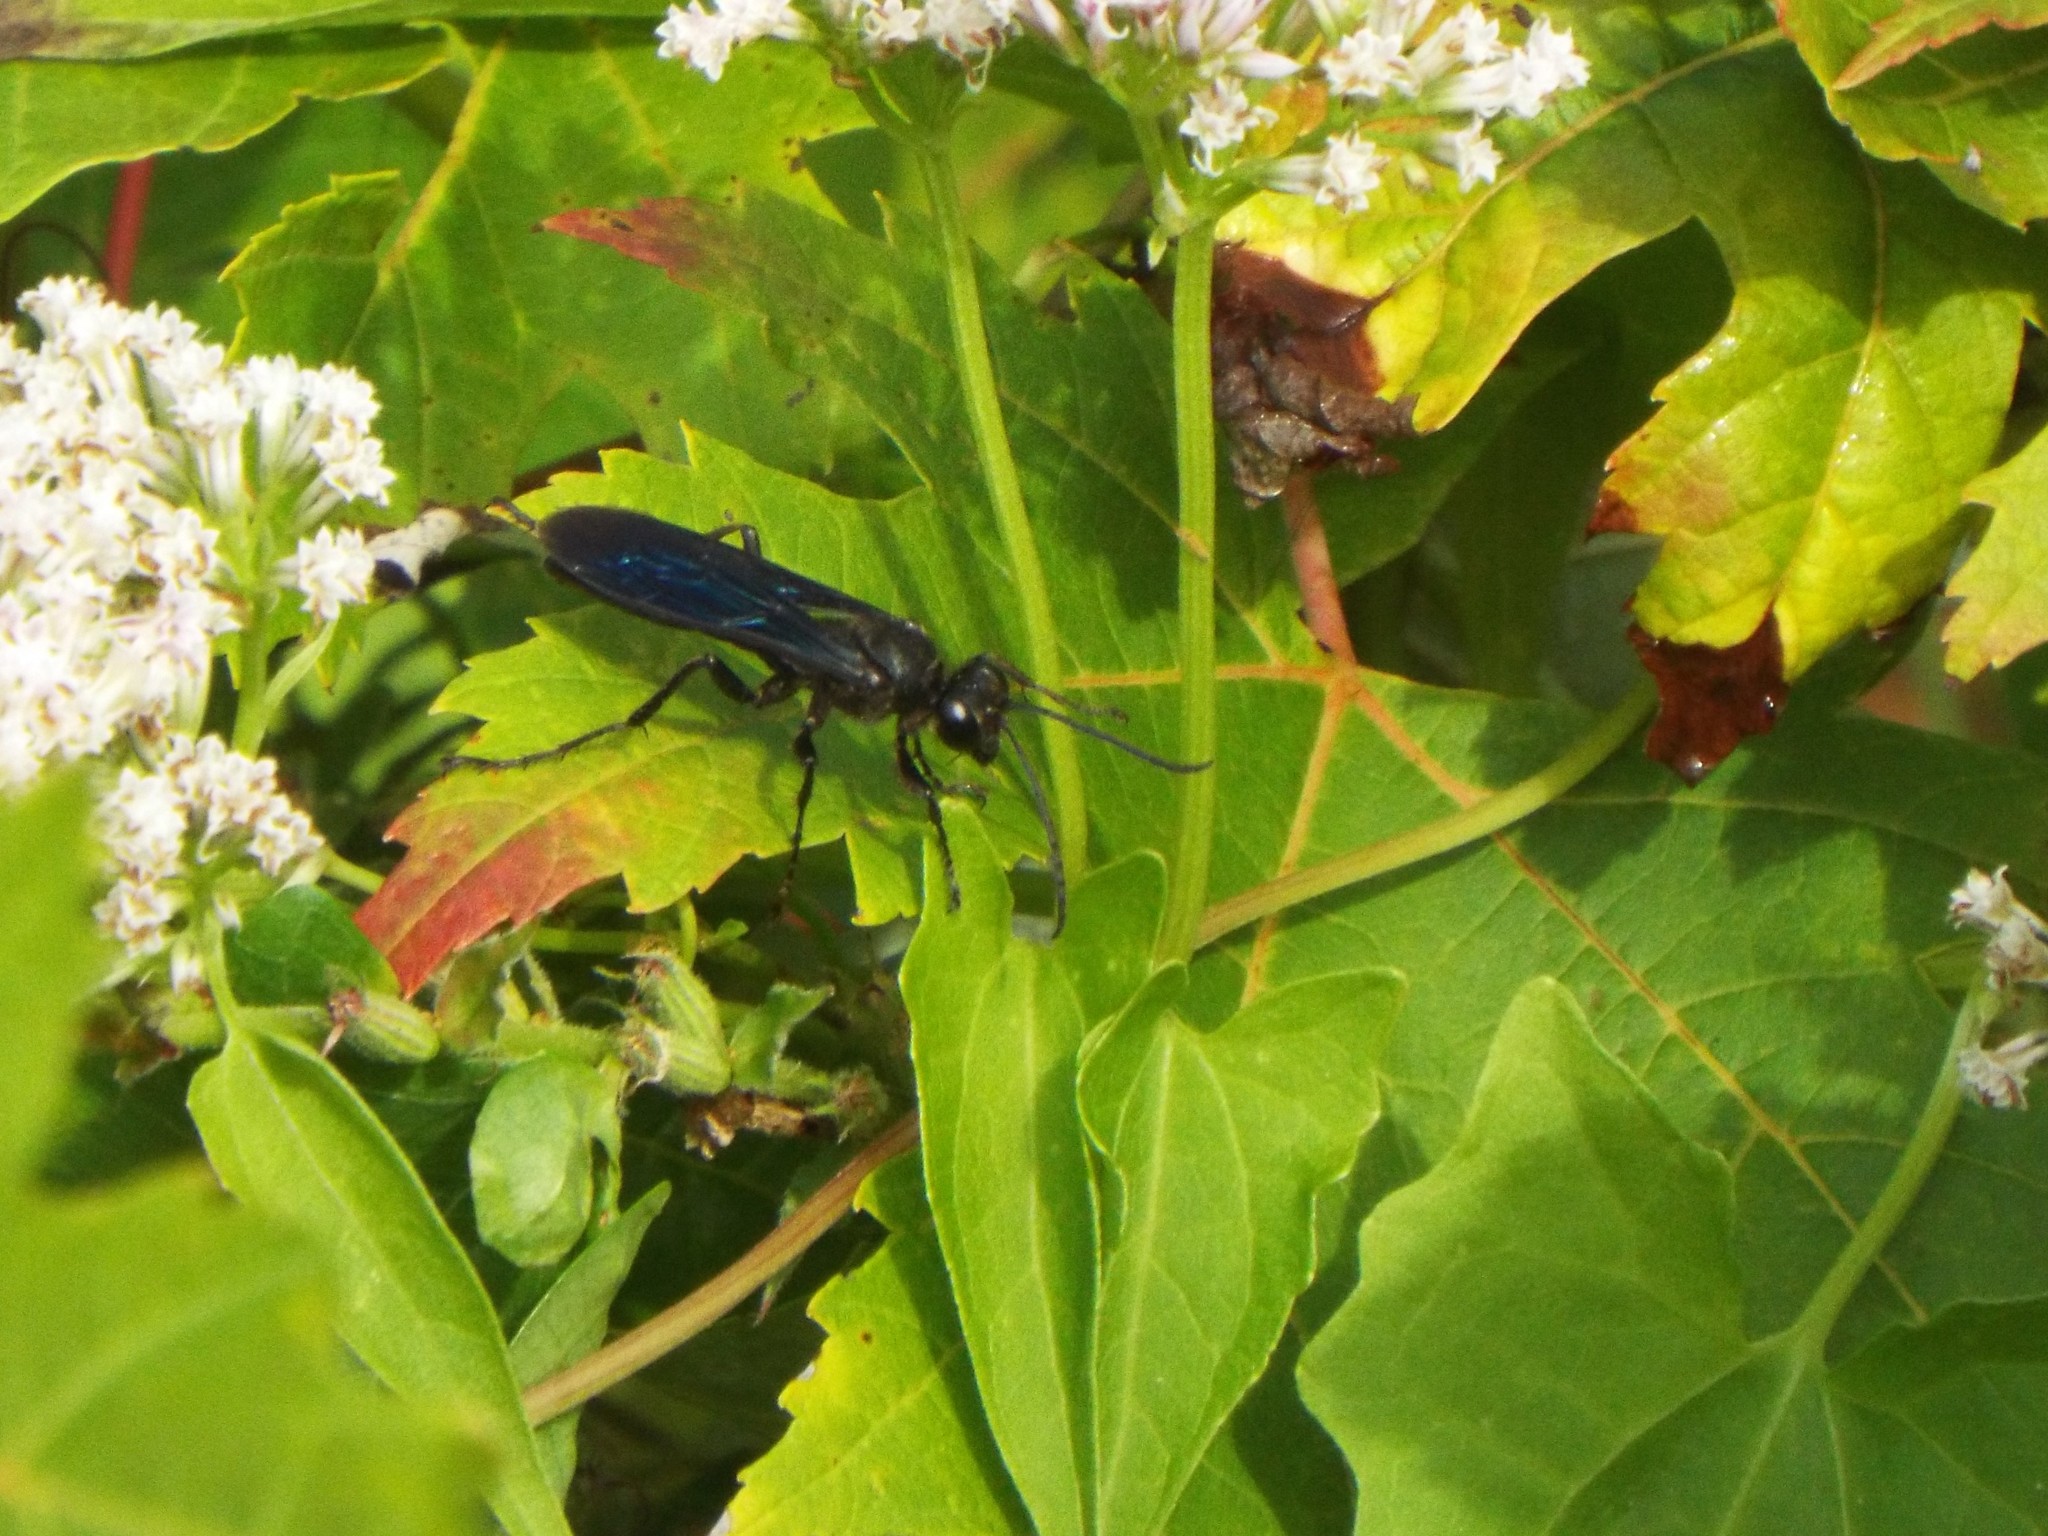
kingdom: Animalia
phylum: Arthropoda
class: Insecta
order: Hymenoptera
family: Sphecidae
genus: Sphex
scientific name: Sphex pensylvanicus
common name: Great black digger wasp
